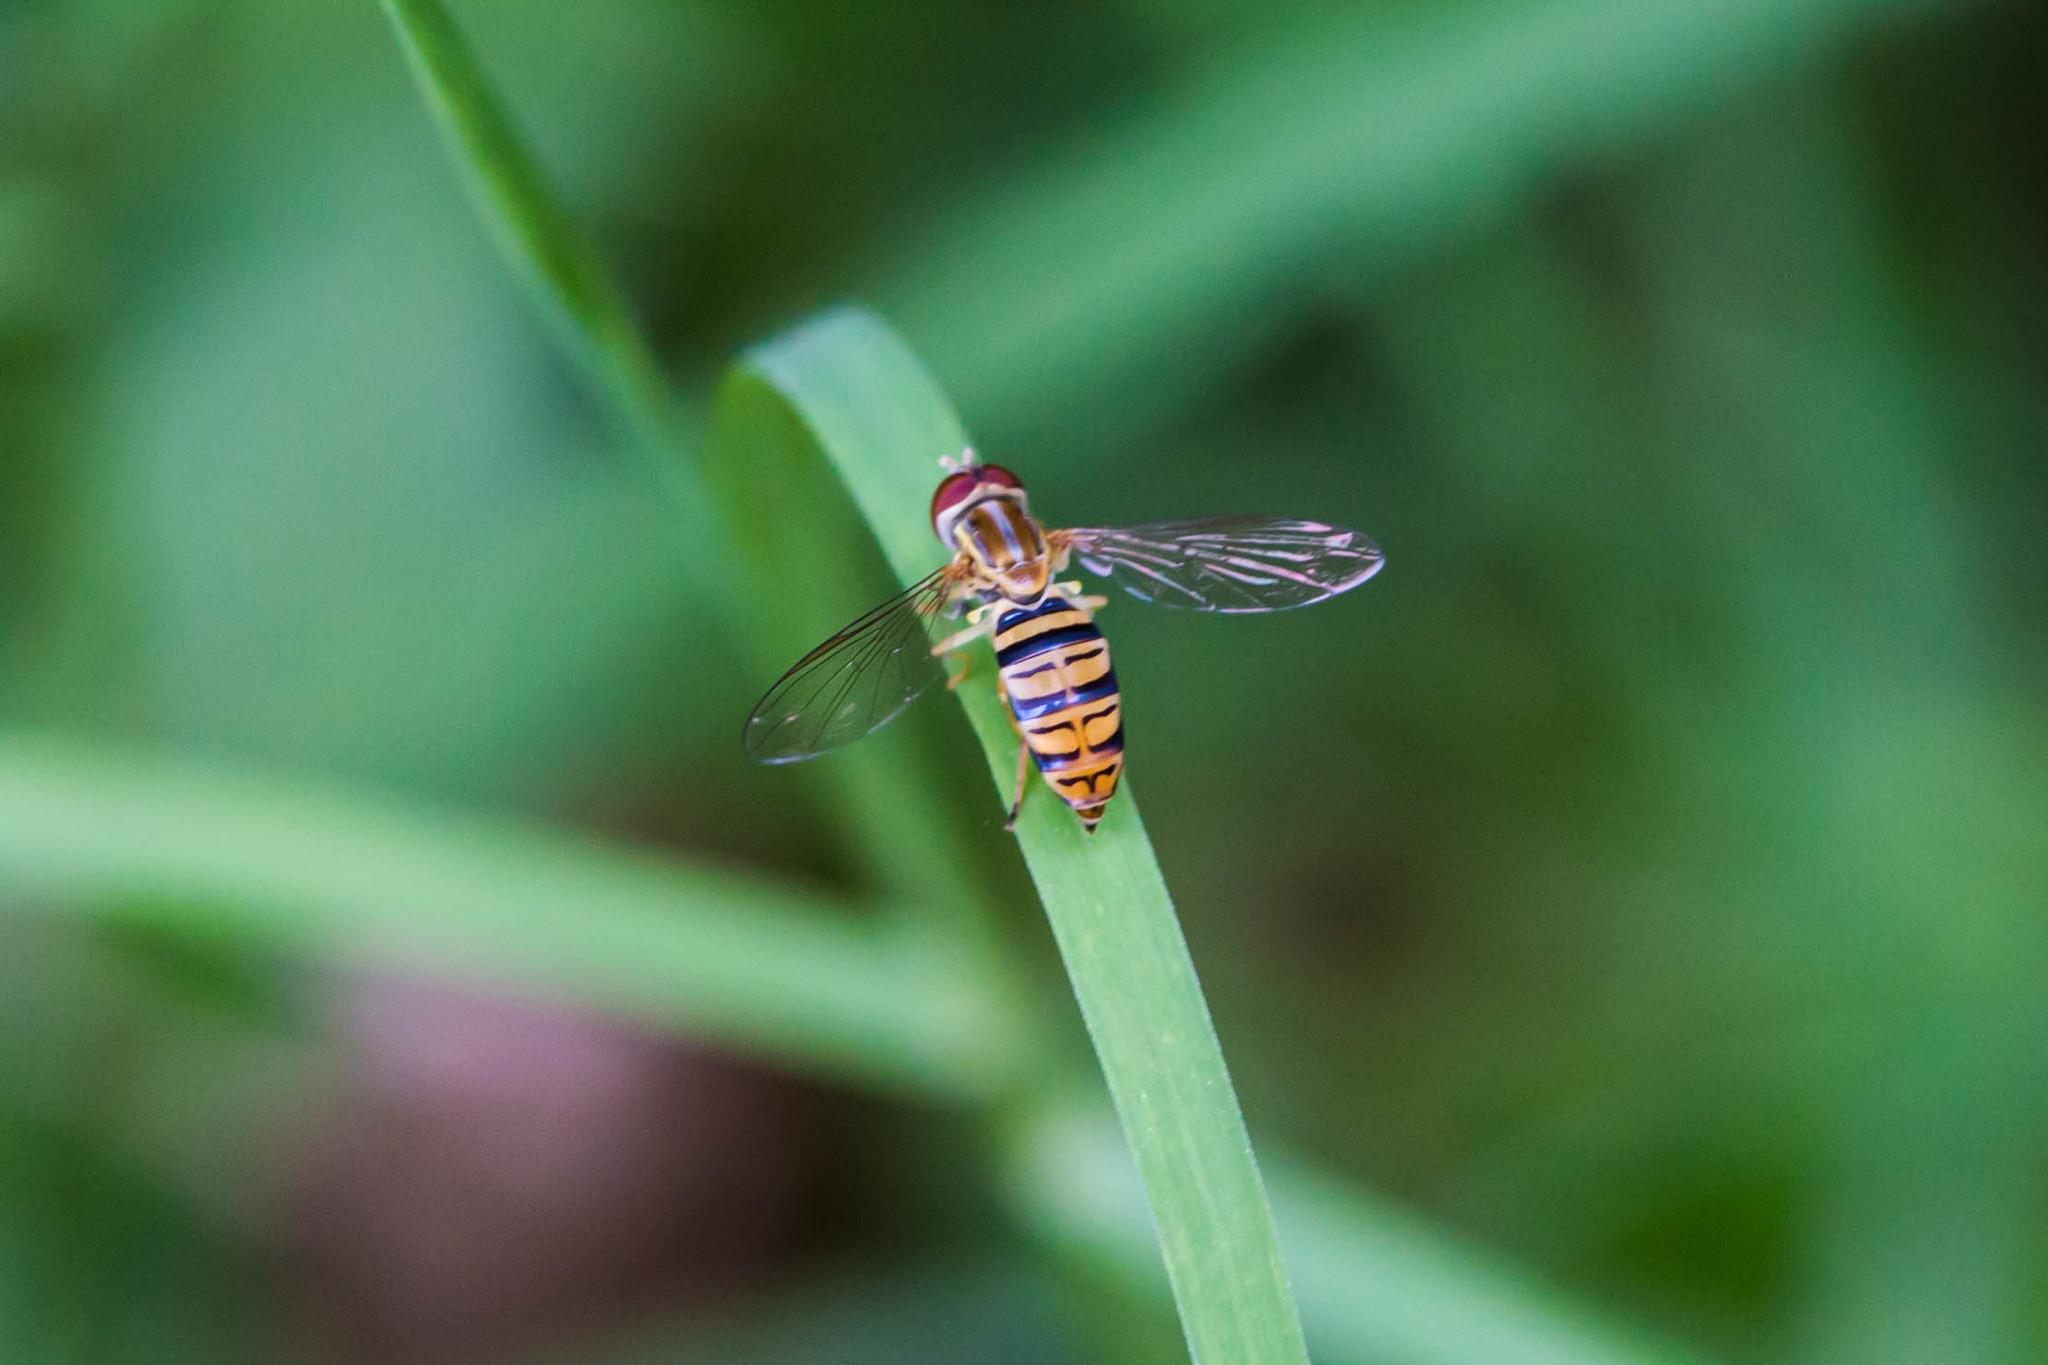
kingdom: Animalia
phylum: Arthropoda
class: Insecta
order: Diptera
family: Syrphidae
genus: Toxomerus
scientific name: Toxomerus politus
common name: Maize calligrapher
